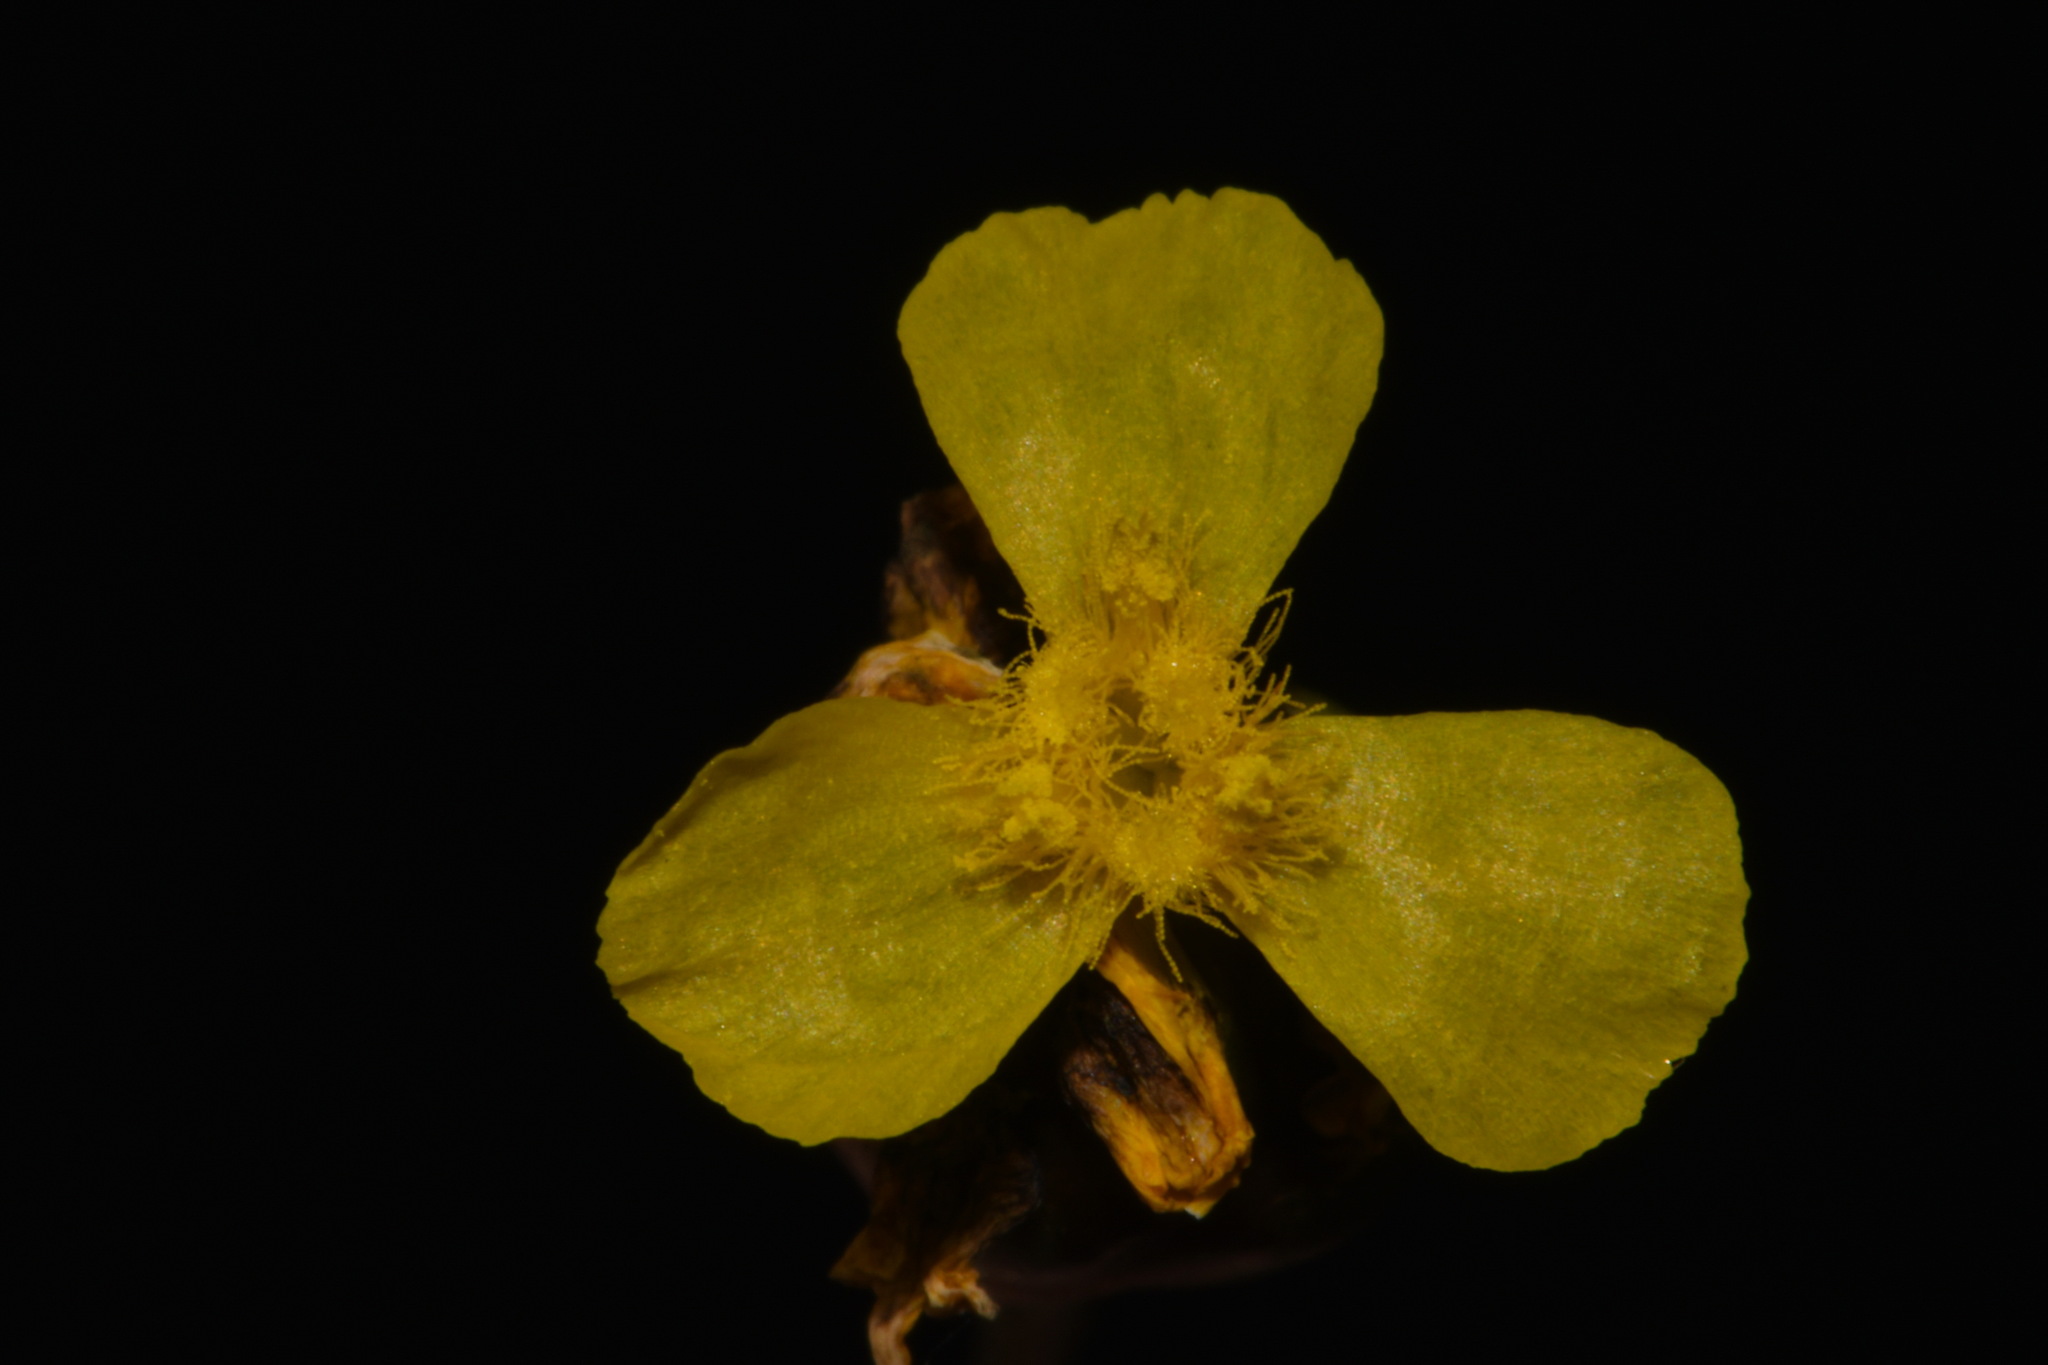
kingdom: Plantae
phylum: Tracheophyta
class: Liliopsida
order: Poales
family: Xyridaceae
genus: Xyris
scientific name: Xyris jupicai
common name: Richard's yelloweyed grass
